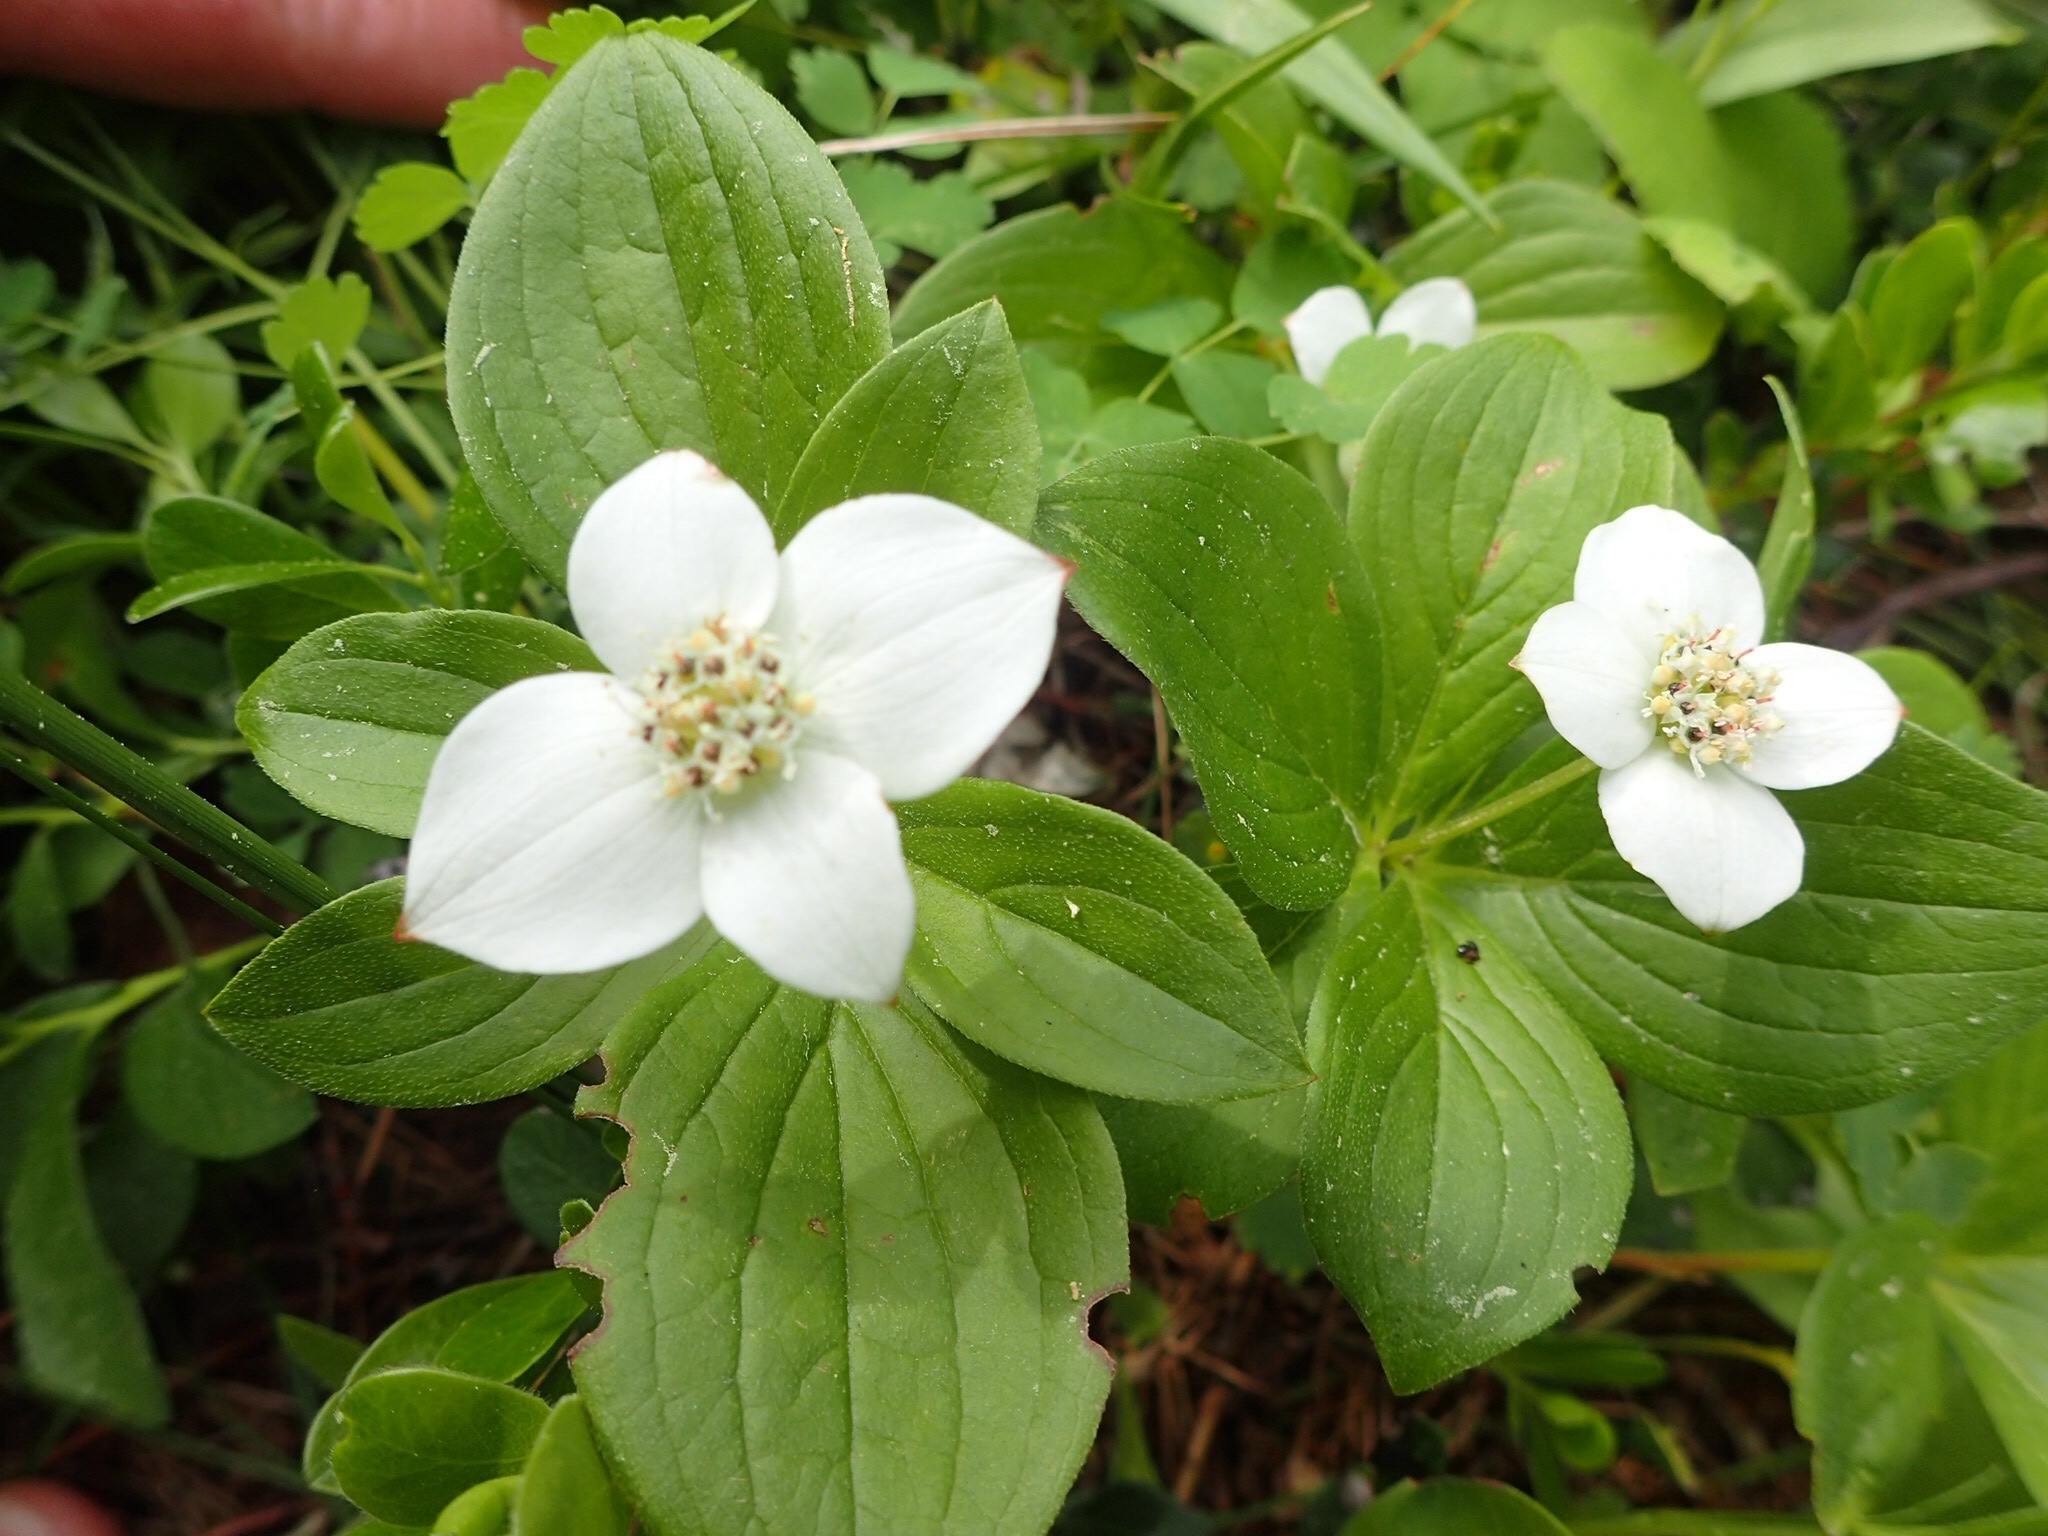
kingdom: Plantae
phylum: Tracheophyta
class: Magnoliopsida
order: Cornales
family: Cornaceae
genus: Cornus
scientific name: Cornus canadensis
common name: Creeping dogwood
